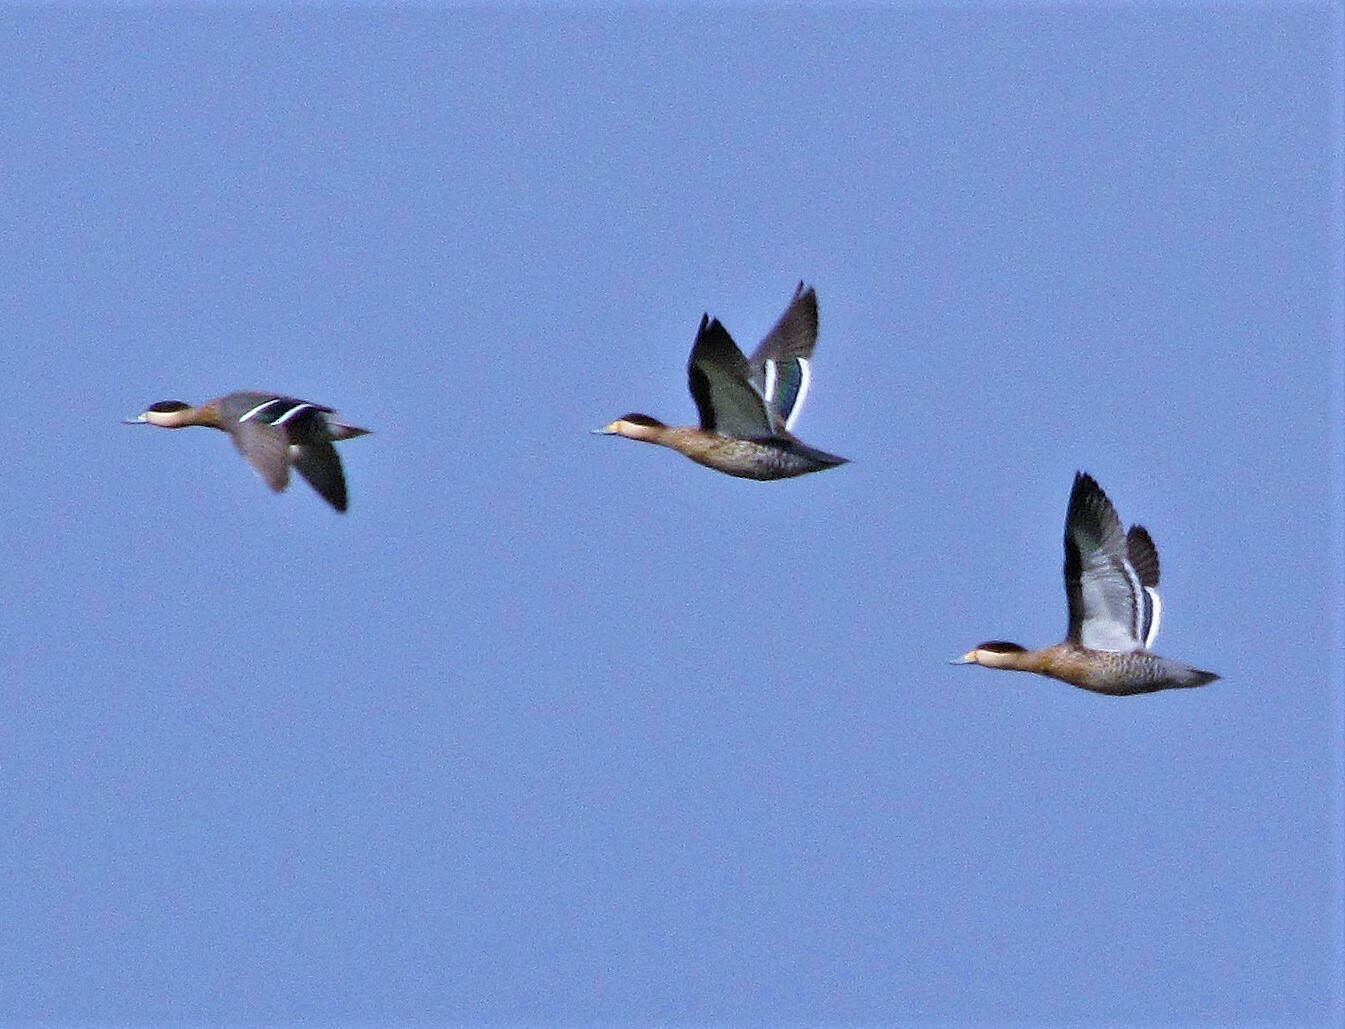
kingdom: Animalia
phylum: Chordata
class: Aves
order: Anseriformes
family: Anatidae
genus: Spatula
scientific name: Spatula versicolor
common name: Silver teal
